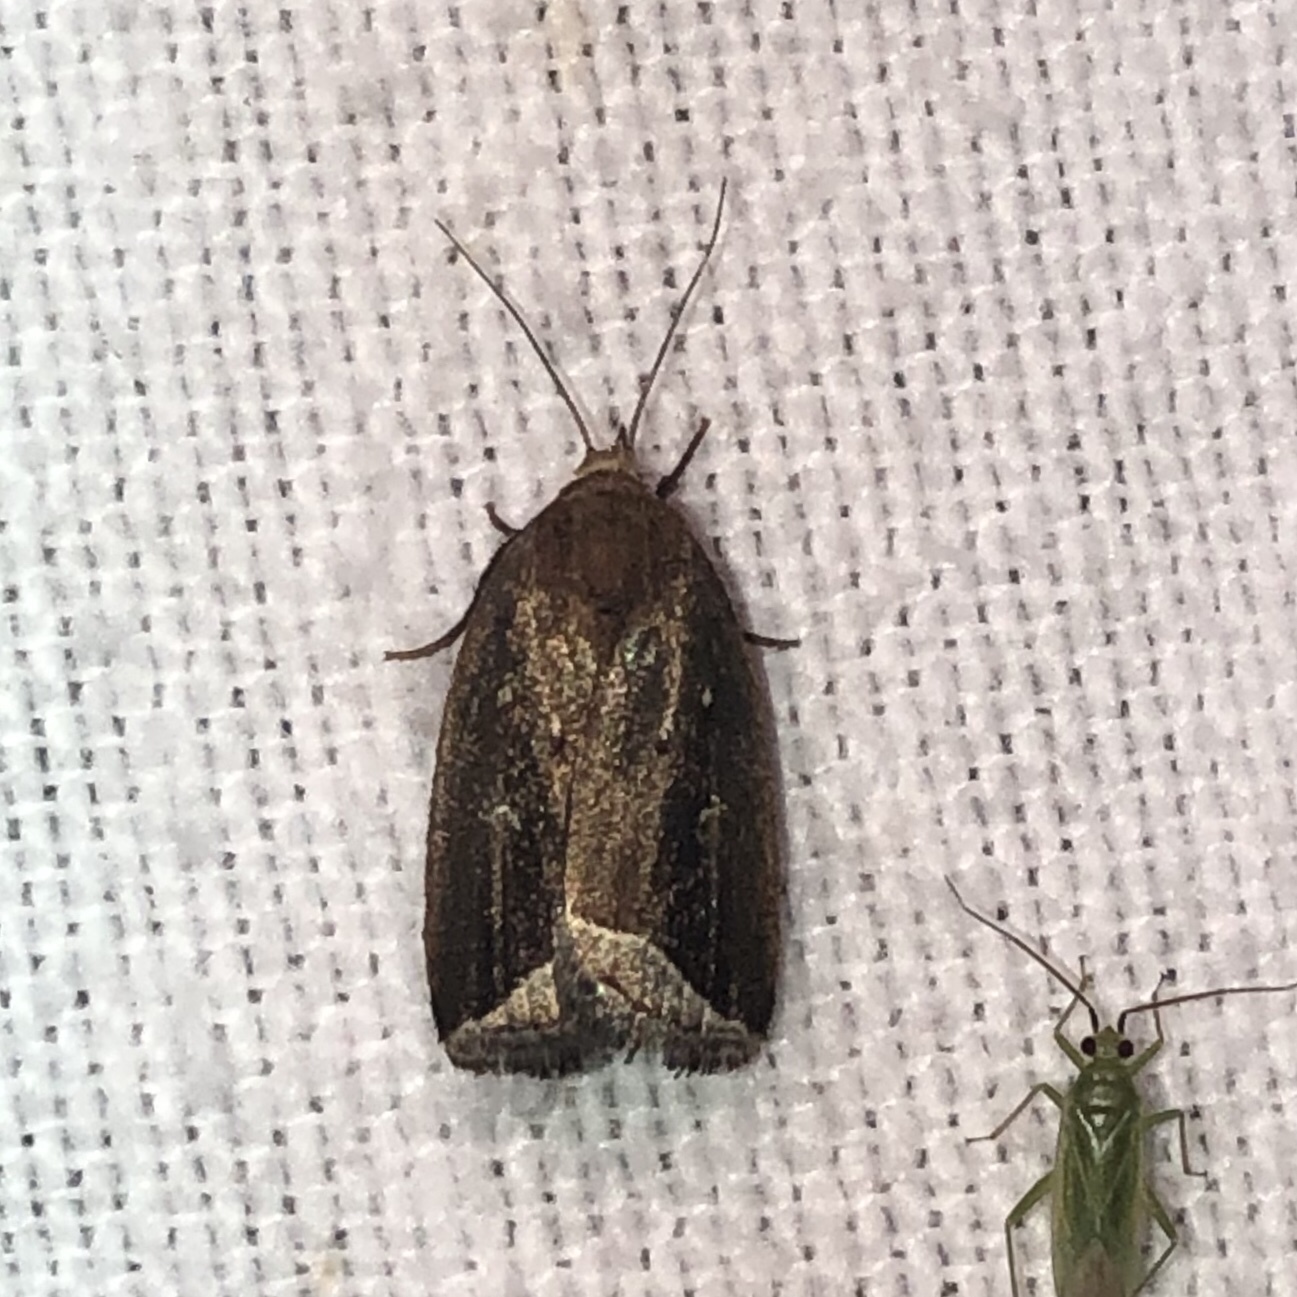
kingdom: Animalia
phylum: Arthropoda
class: Insecta
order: Lepidoptera
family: Erebidae
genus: Capis
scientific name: Capis curvata
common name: Curved halter moth
